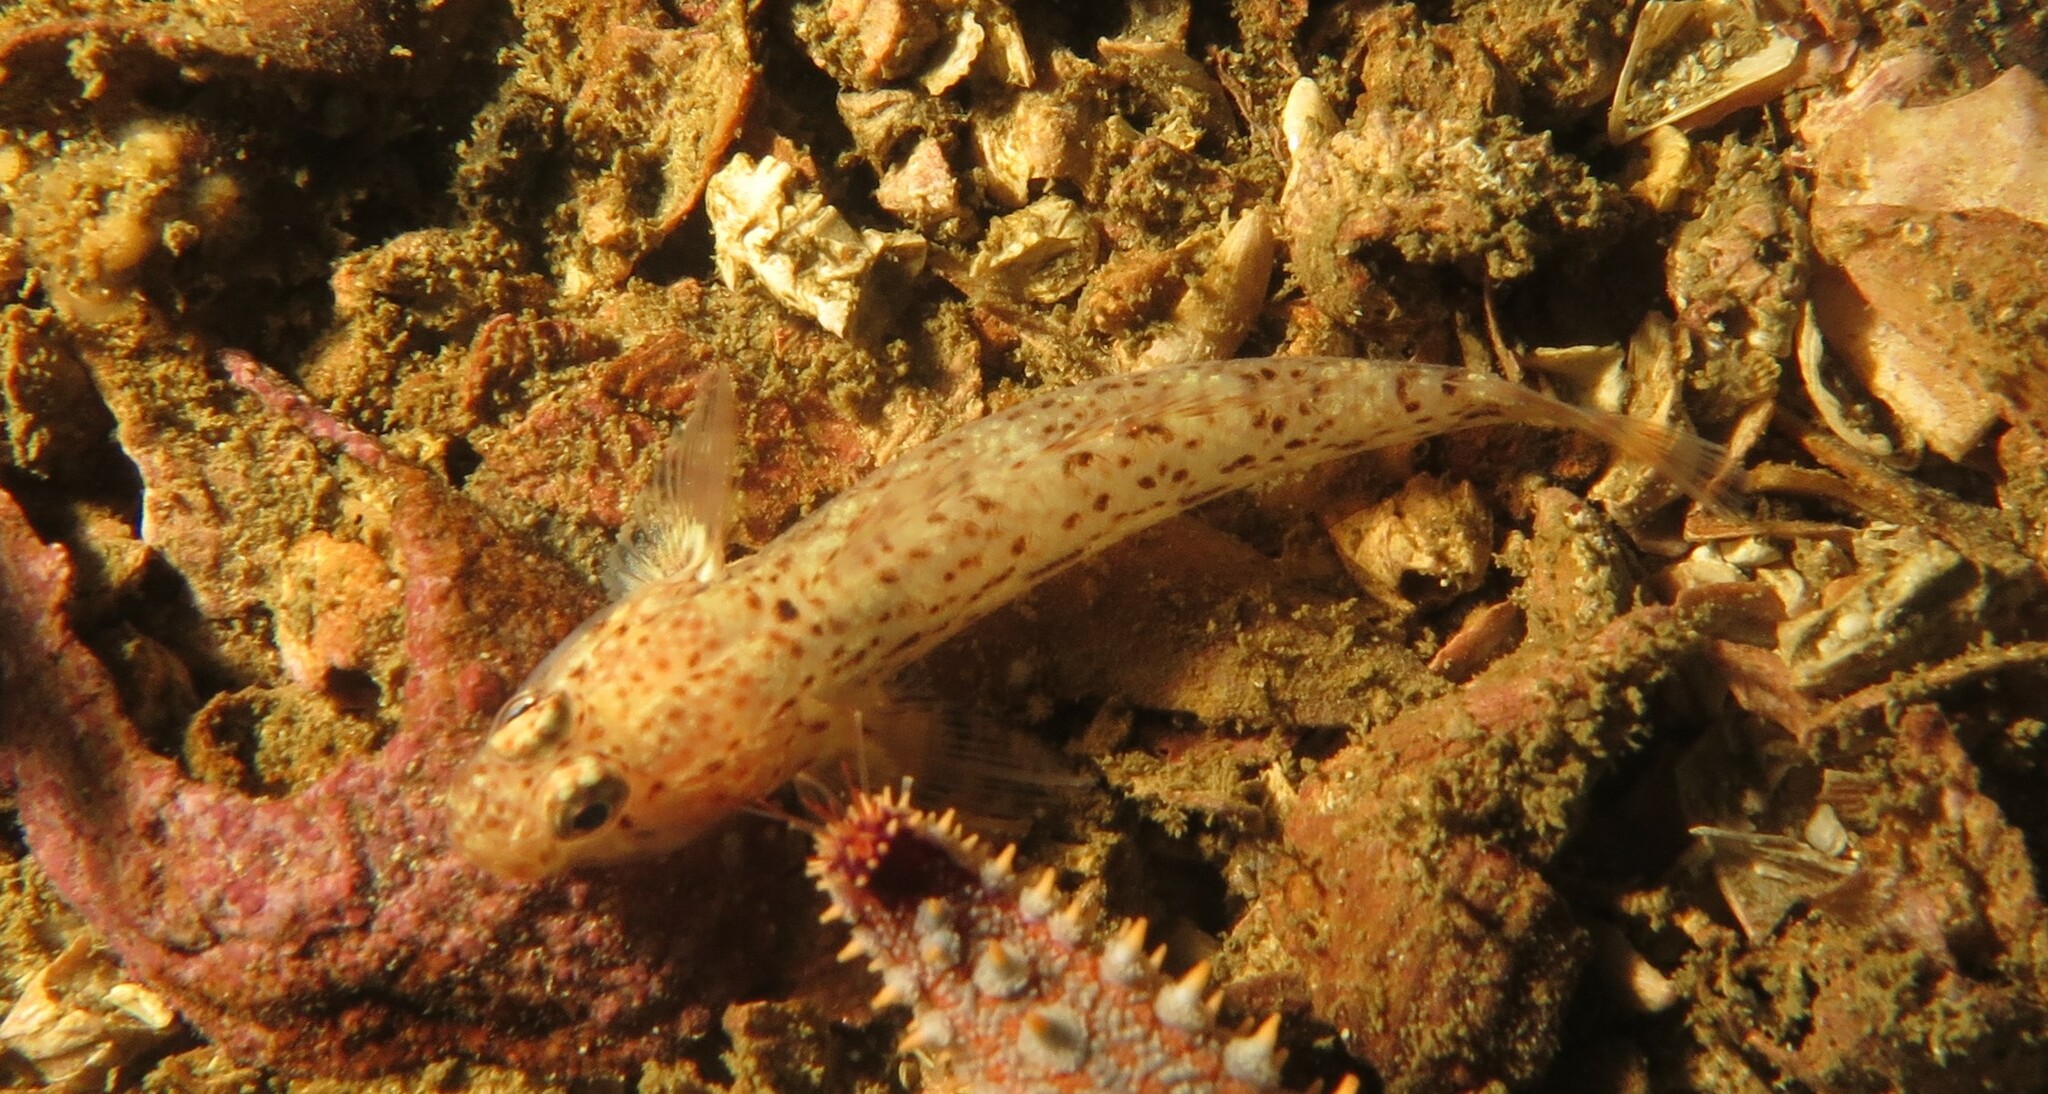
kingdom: Animalia
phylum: Chordata
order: Perciformes
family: Gobiidae
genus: Caffrogobius
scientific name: Caffrogobius saldanha
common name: Commafin goby
